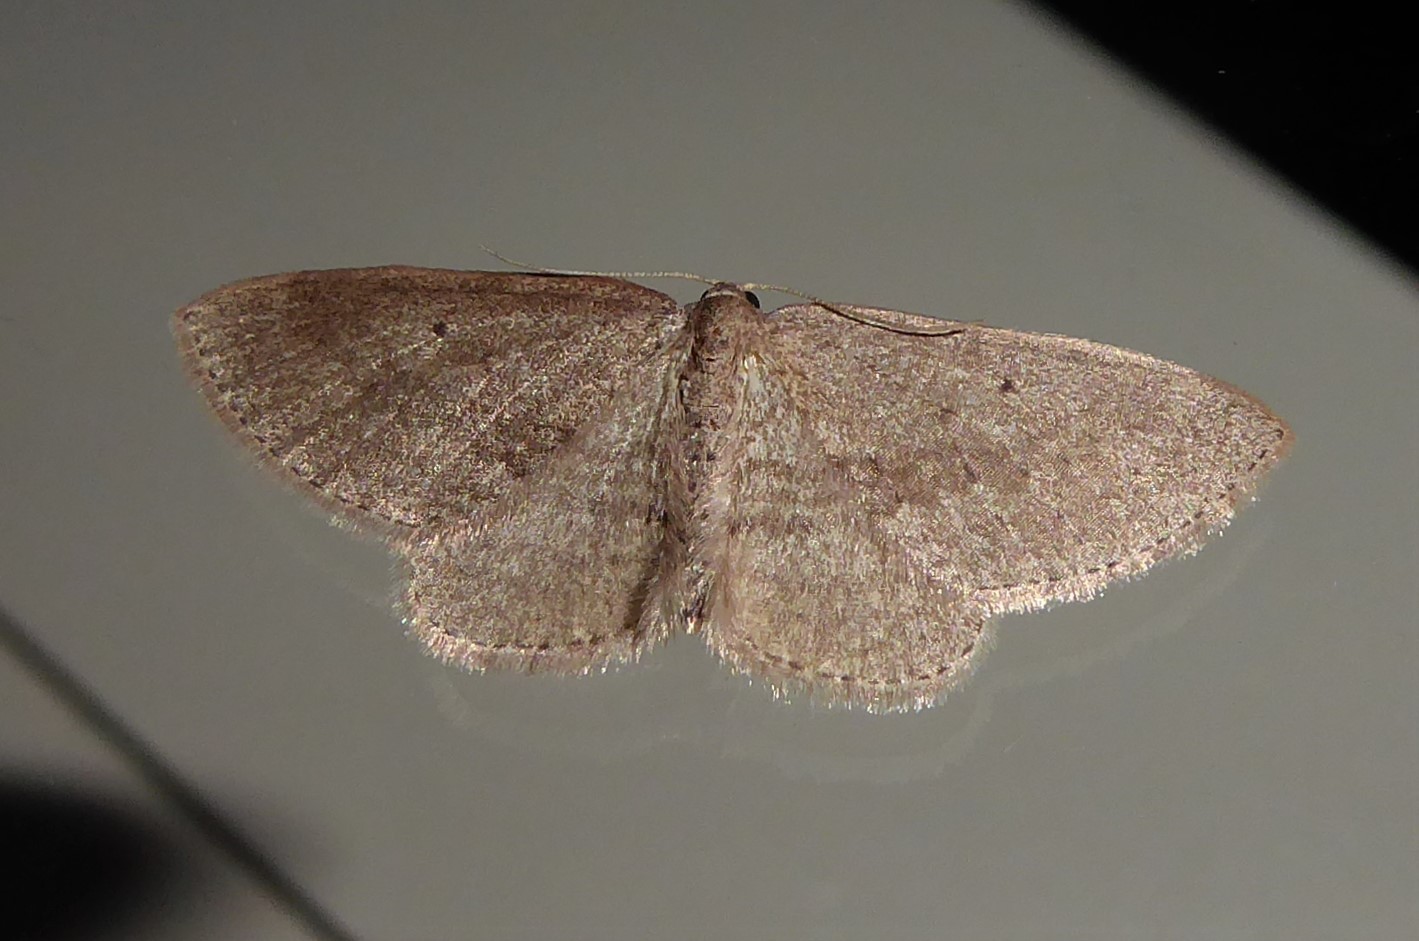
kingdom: Animalia
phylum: Arthropoda
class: Insecta
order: Lepidoptera
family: Geometridae
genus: Poecilasthena
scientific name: Poecilasthena schistaria
